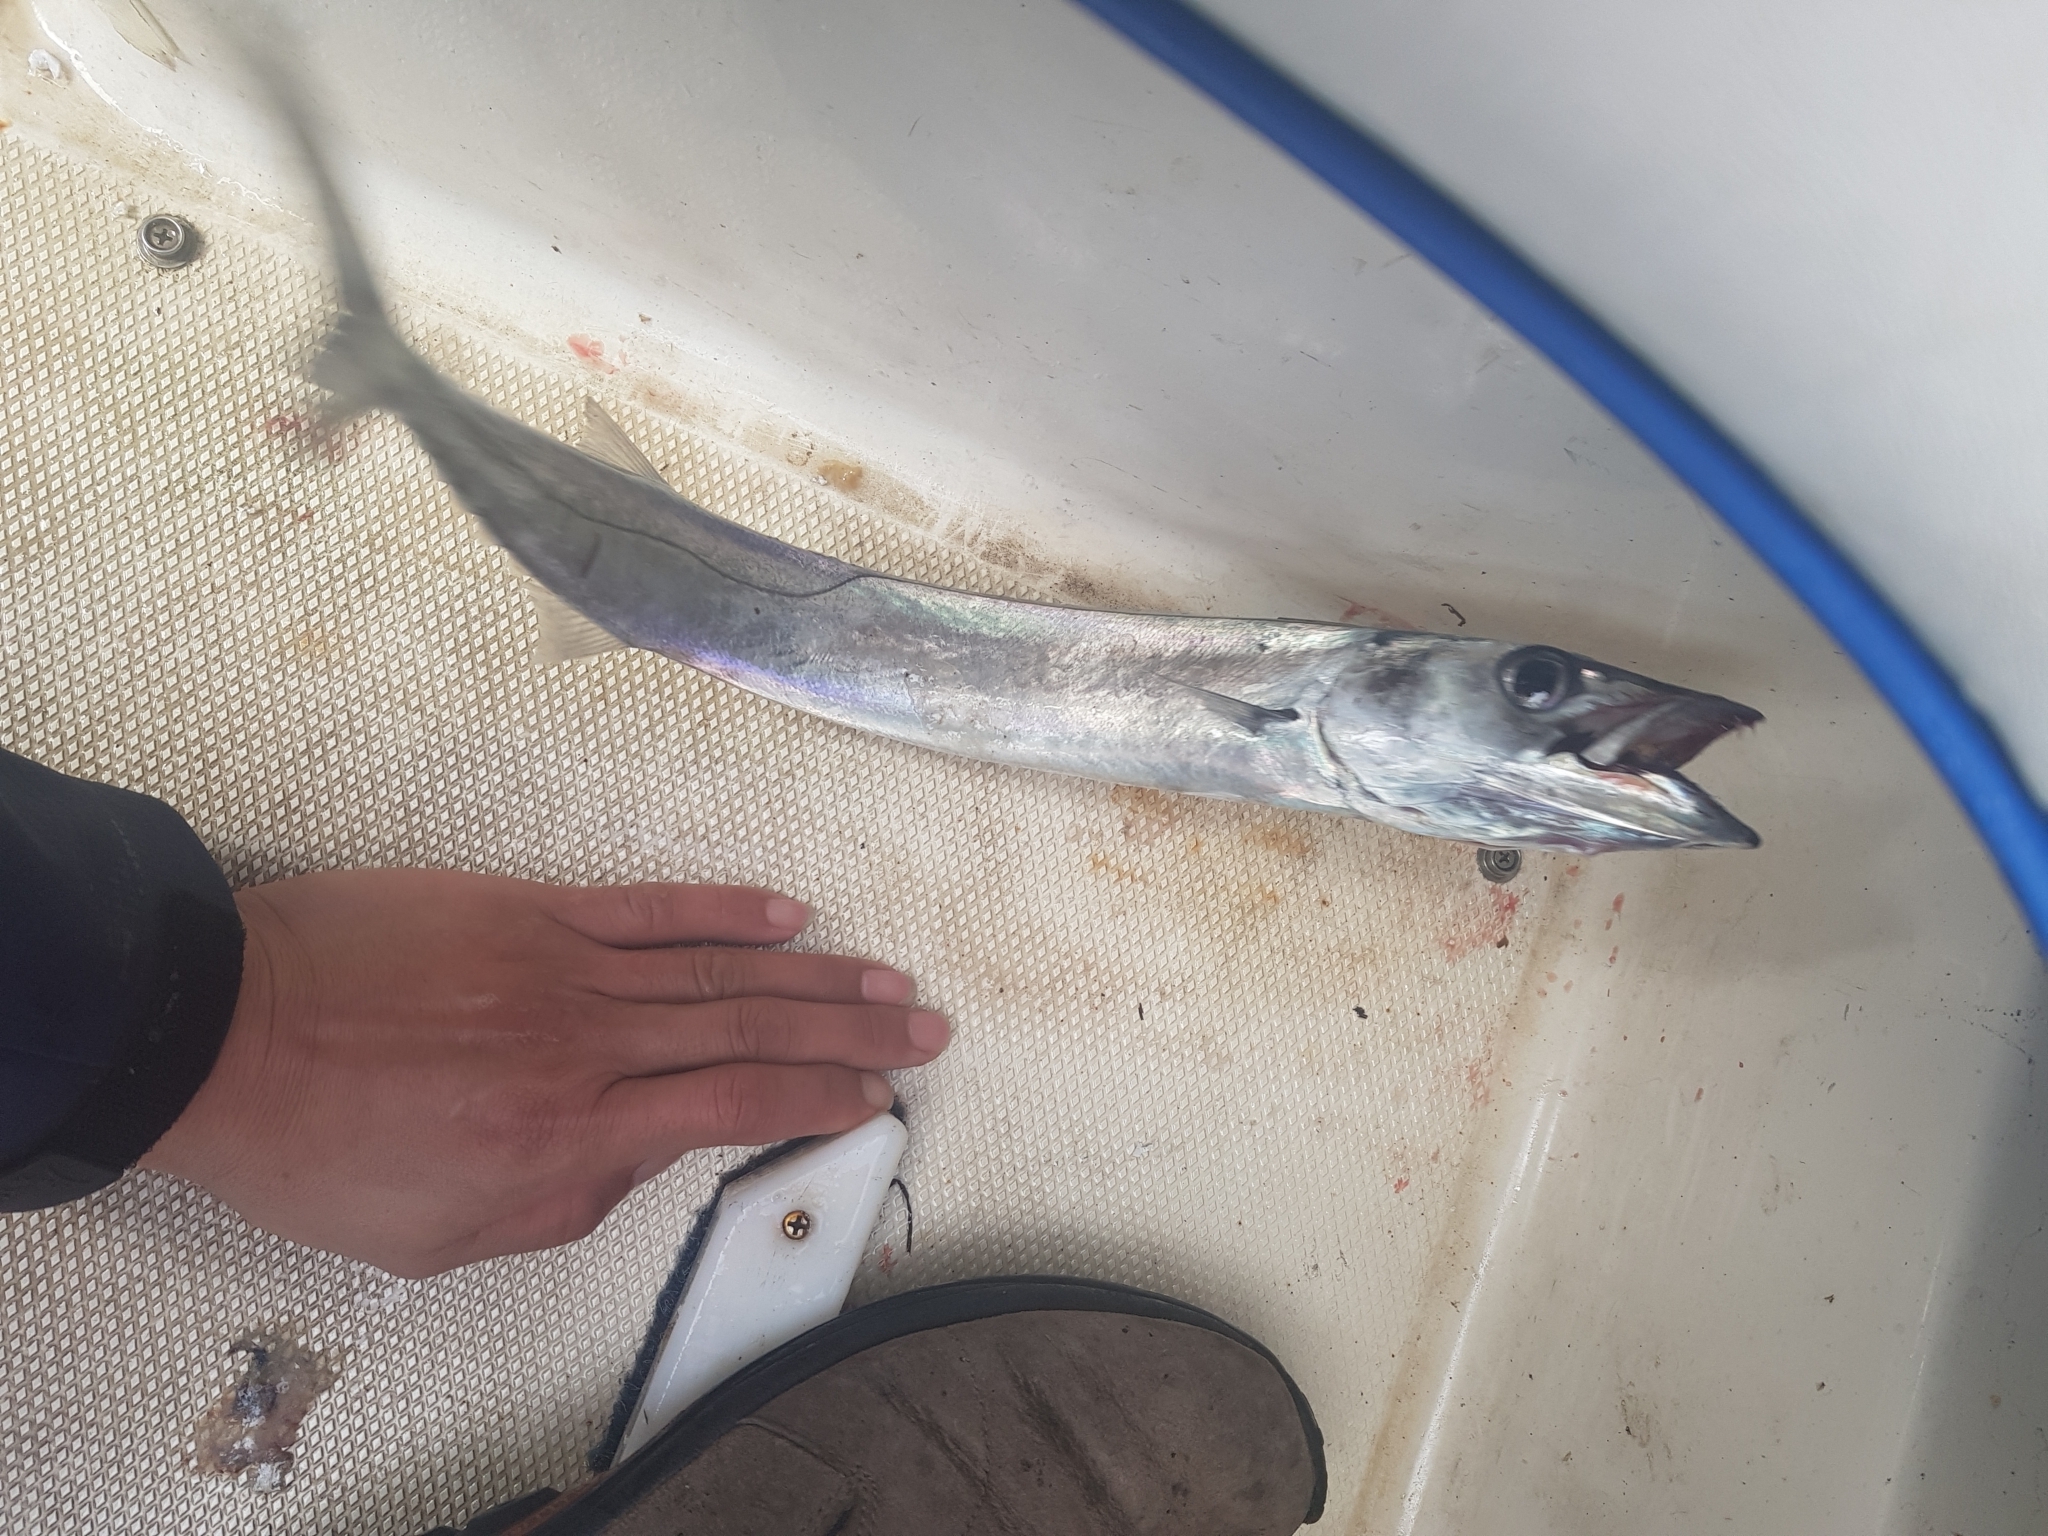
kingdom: Animalia
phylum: Chordata
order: Perciformes
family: Gempylidae
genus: Thyrsites
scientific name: Thyrsites atun
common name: Snoek
